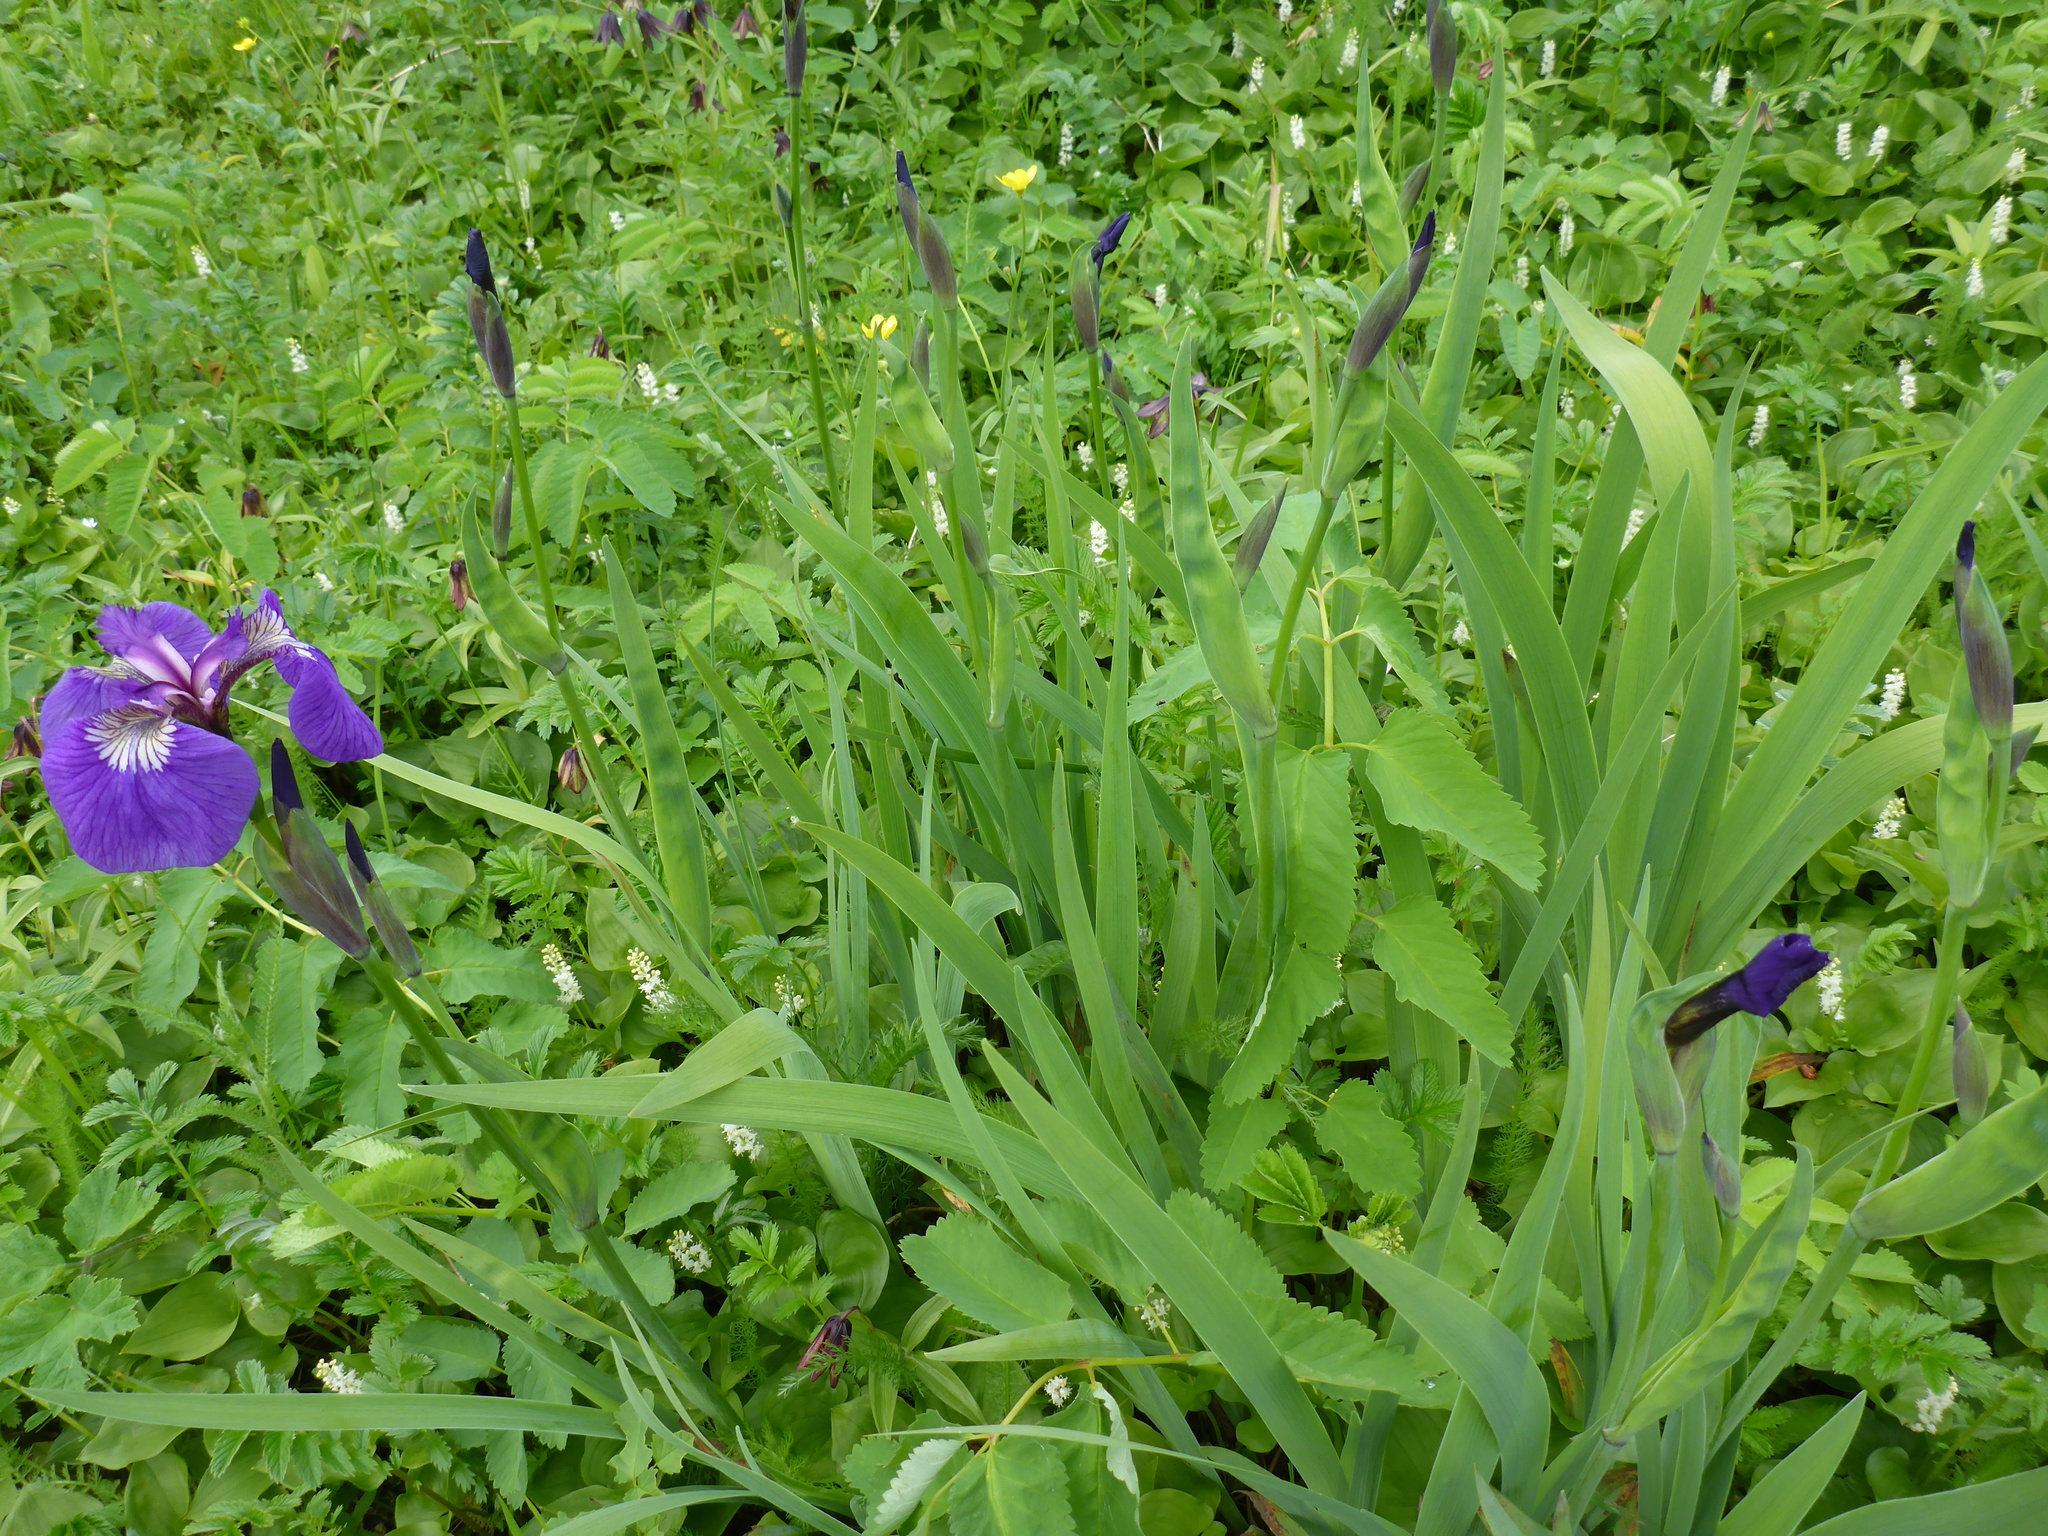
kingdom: Plantae
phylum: Tracheophyta
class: Liliopsida
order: Asparagales
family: Iridaceae
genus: Iris
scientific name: Iris setosa
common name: Arctic blue flag
